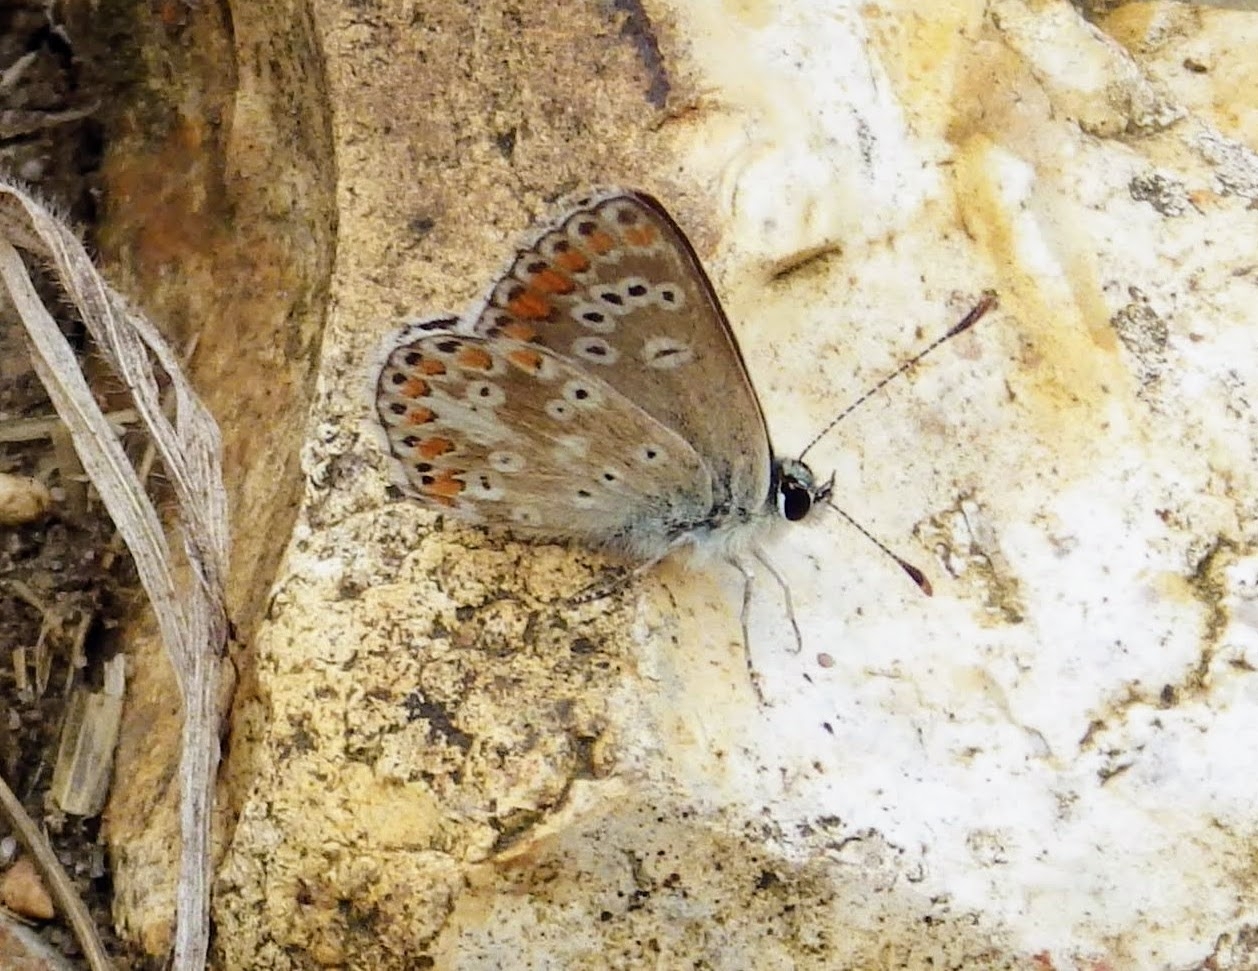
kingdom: Animalia
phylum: Arthropoda
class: Insecta
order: Lepidoptera
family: Lycaenidae
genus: Aricia
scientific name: Aricia agestis
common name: Brown argus
